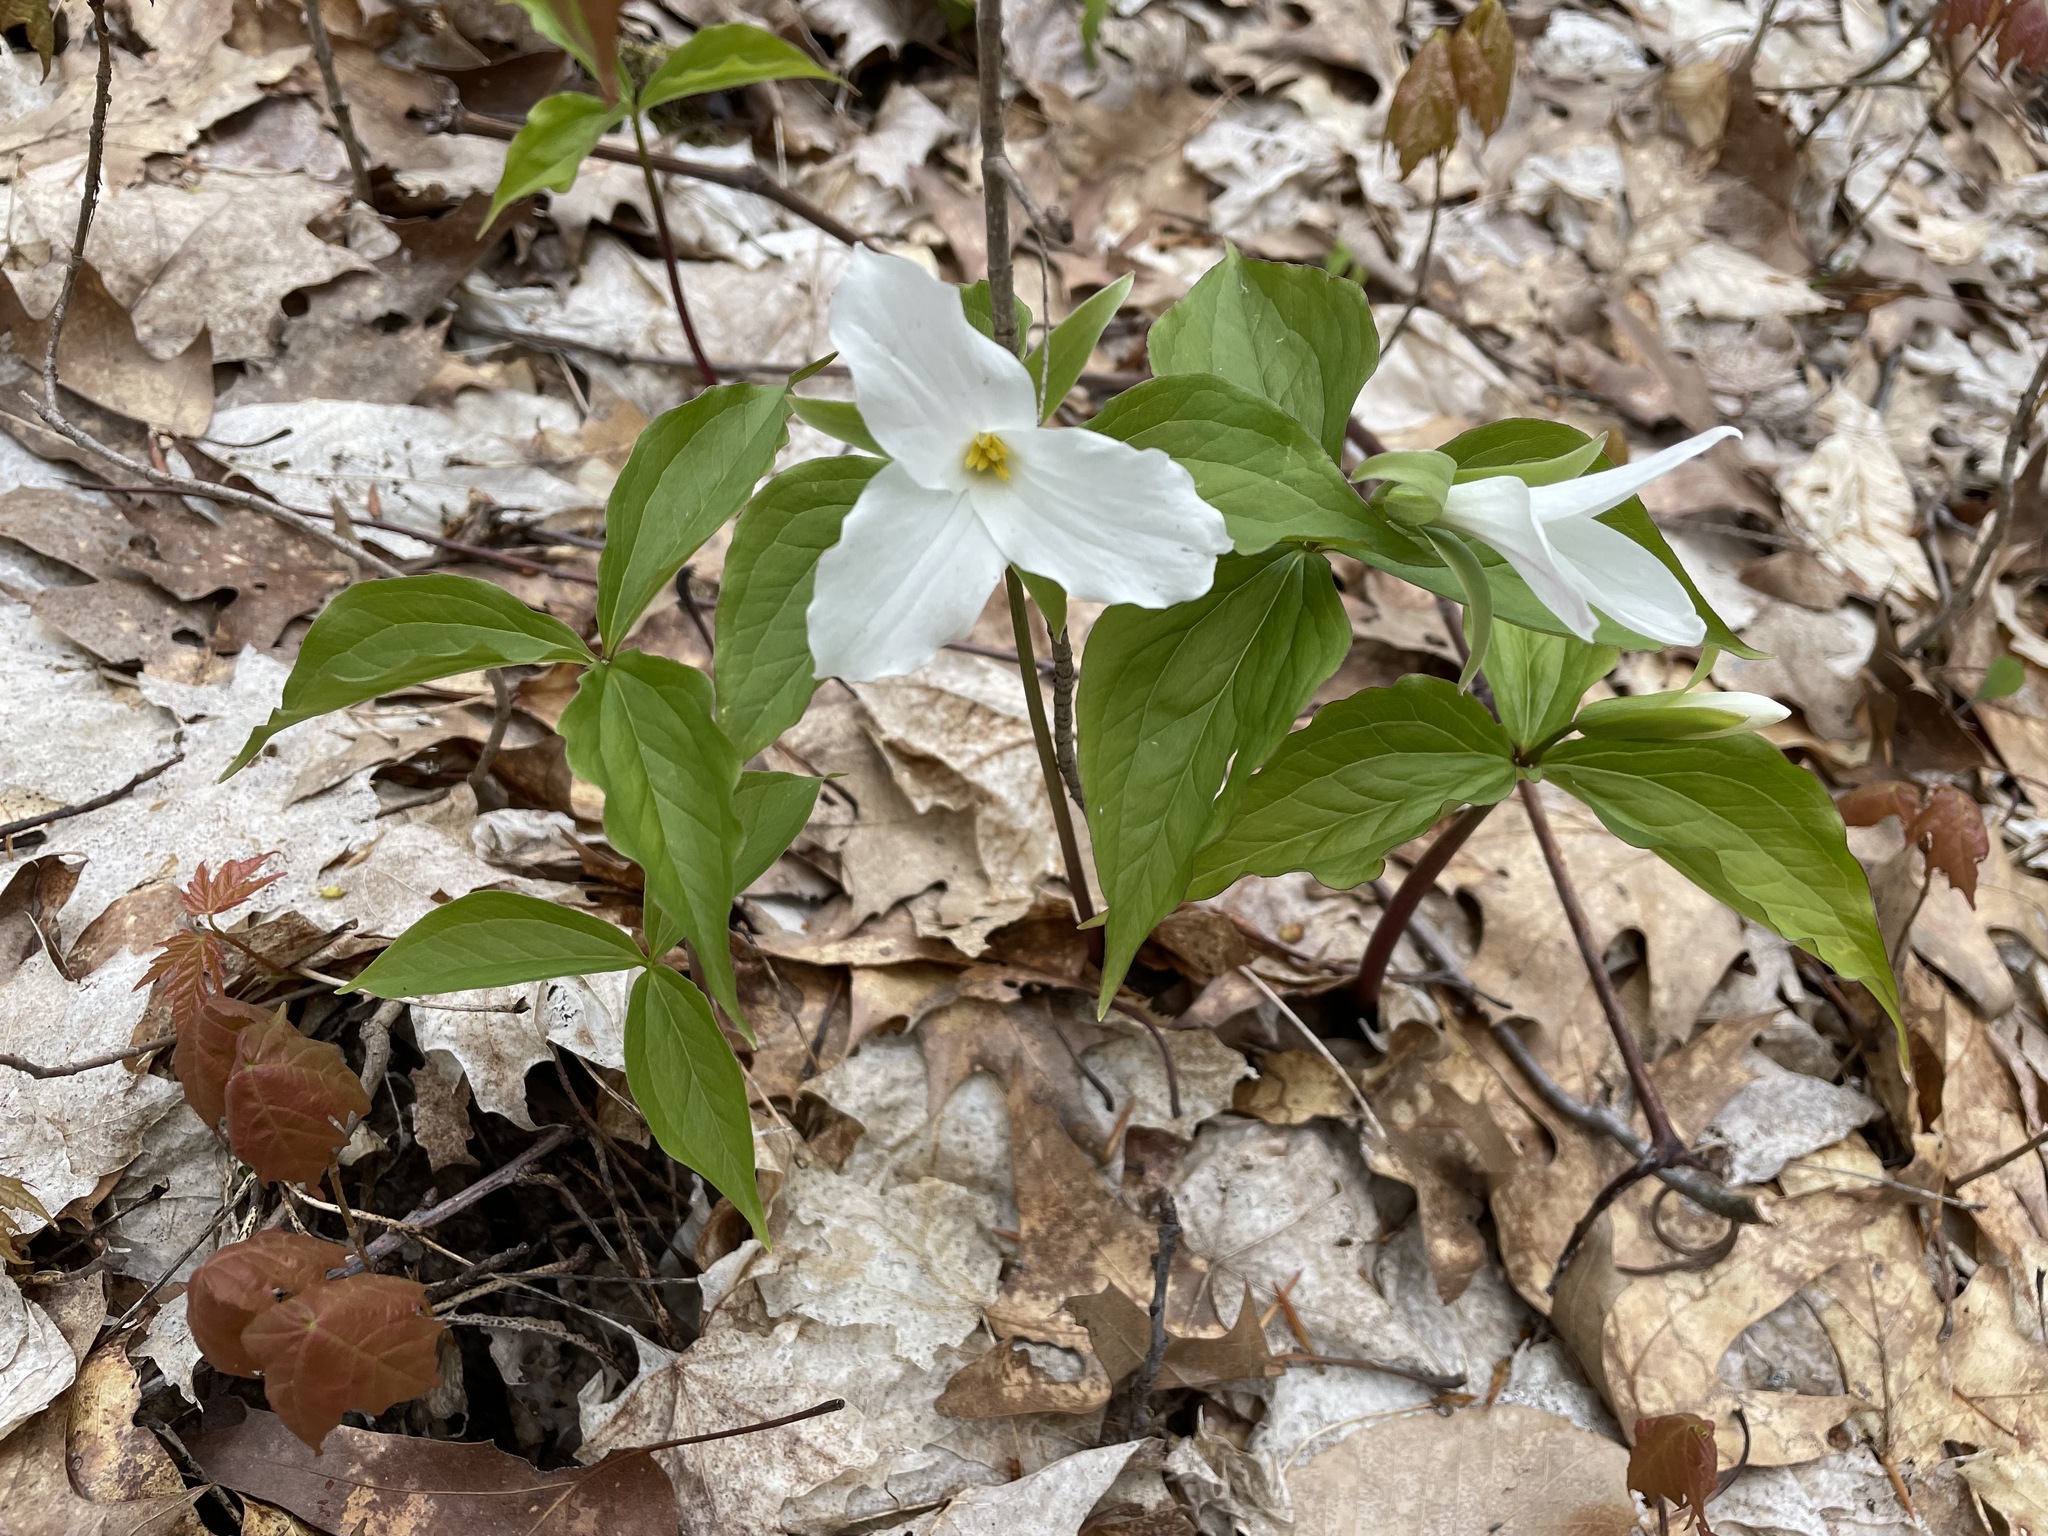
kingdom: Plantae
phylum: Tracheophyta
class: Liliopsida
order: Liliales
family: Melanthiaceae
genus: Trillium
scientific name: Trillium grandiflorum
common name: Great white trillium
